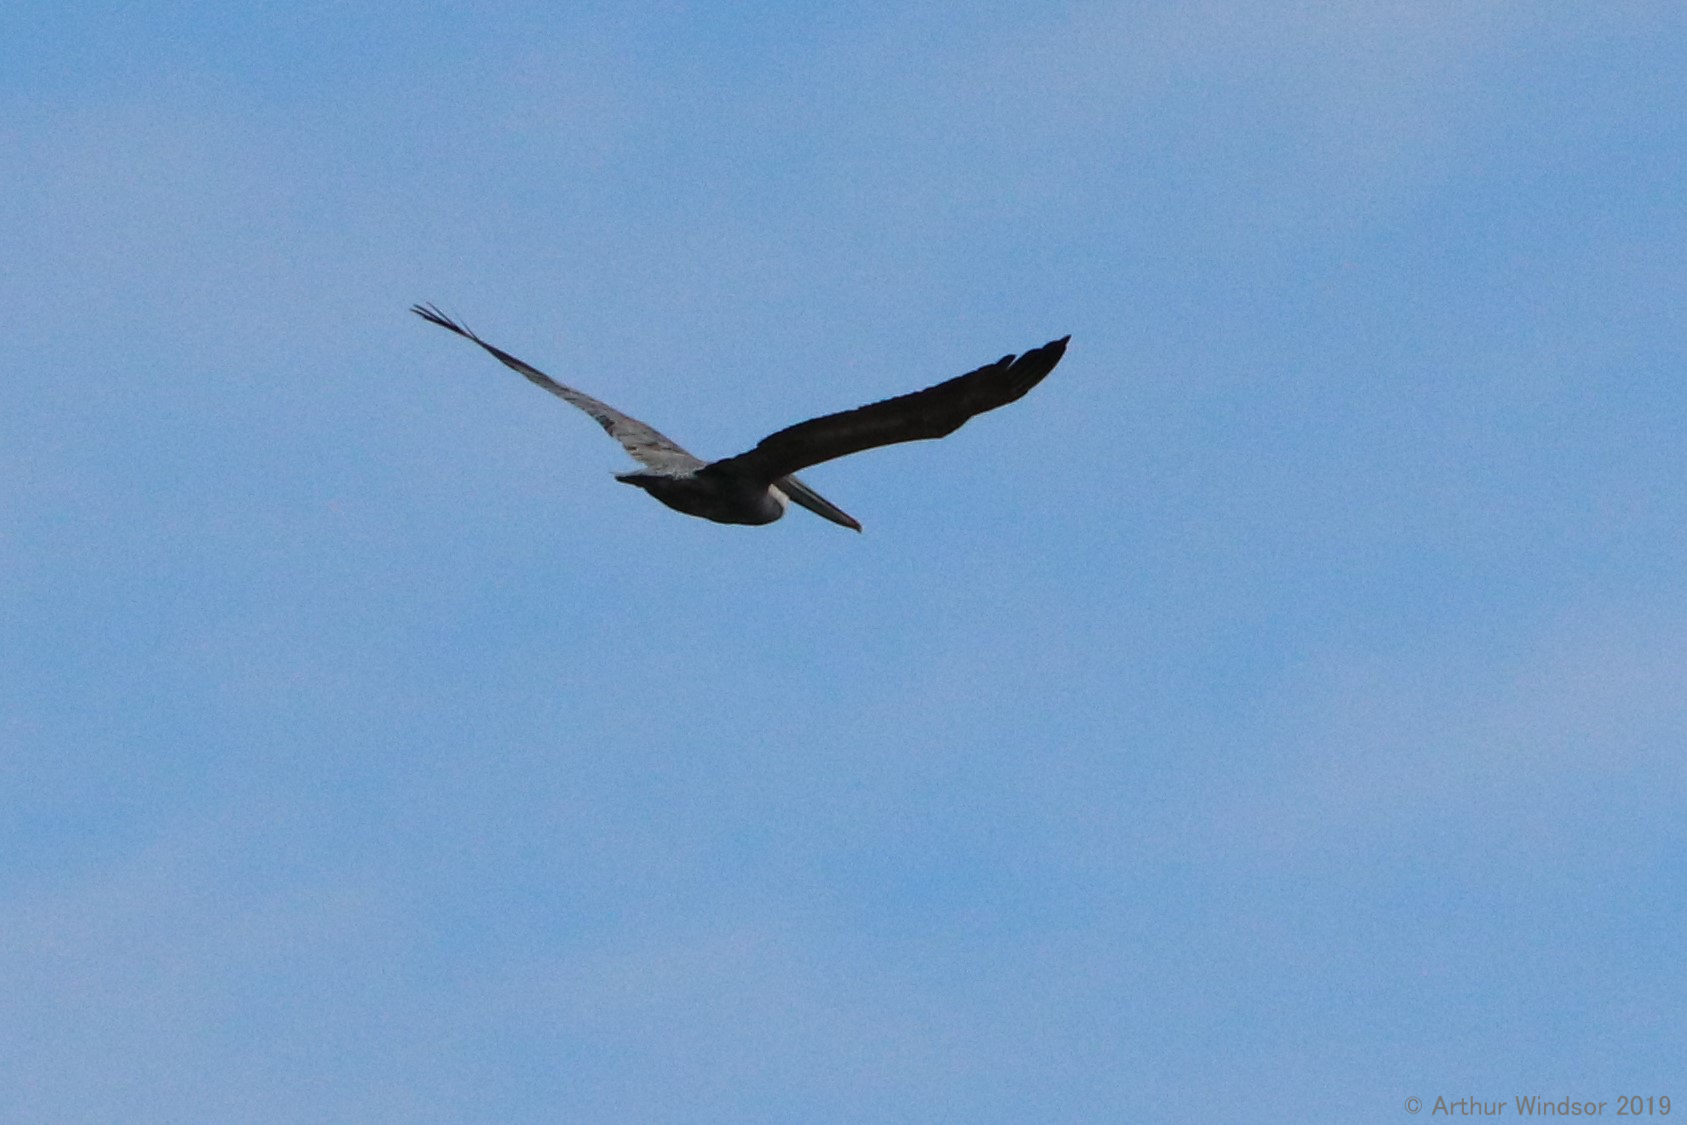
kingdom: Animalia
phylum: Chordata
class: Aves
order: Pelecaniformes
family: Pelecanidae
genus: Pelecanus
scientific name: Pelecanus occidentalis
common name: Brown pelican
